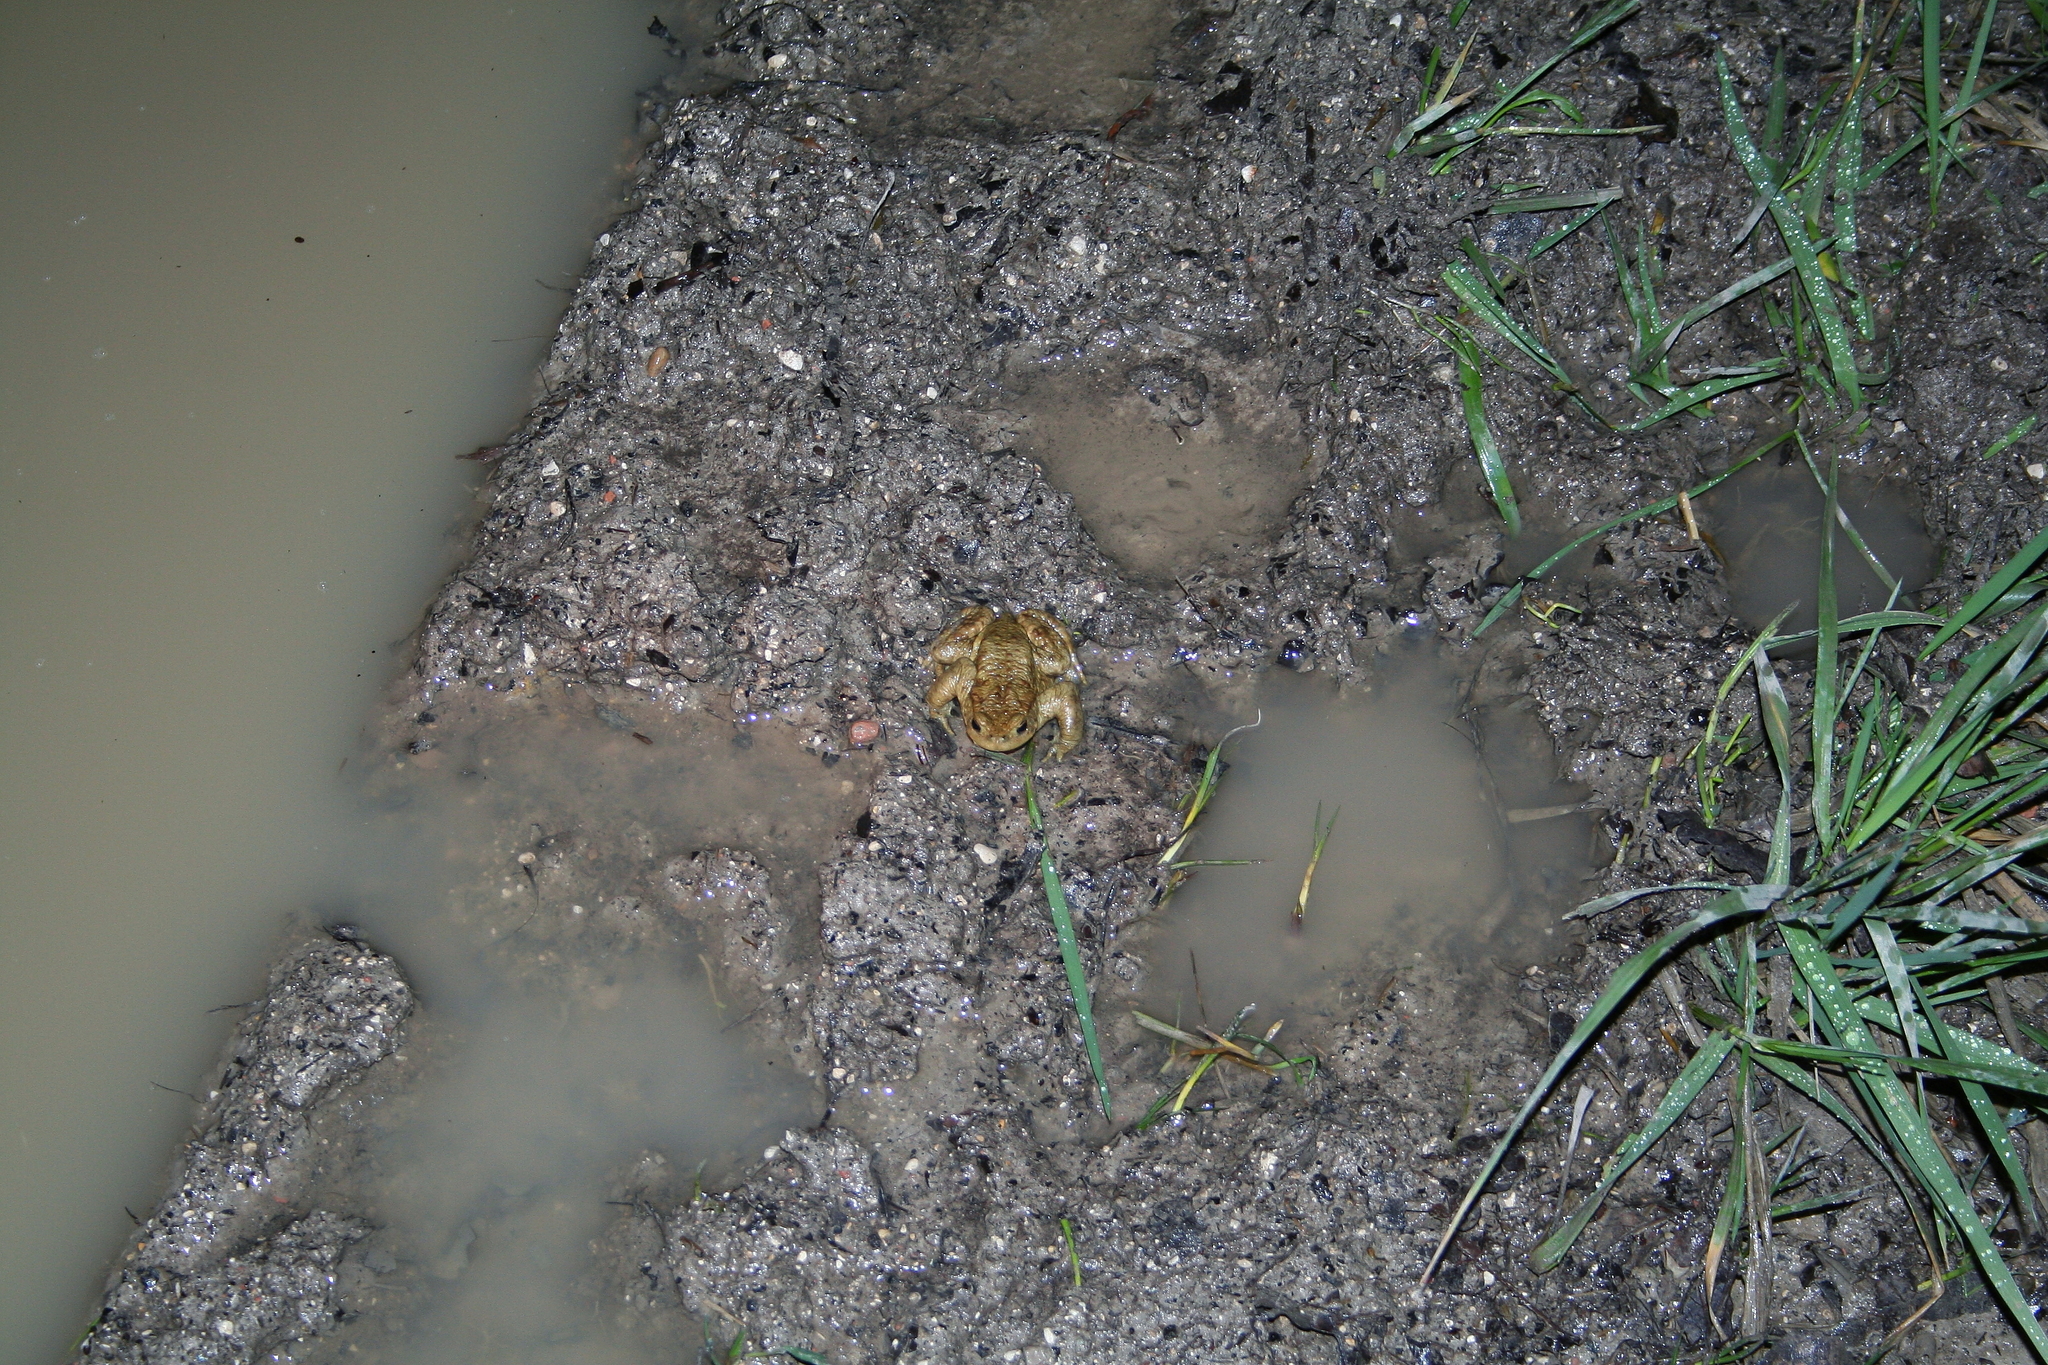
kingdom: Animalia
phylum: Chordata
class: Amphibia
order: Anura
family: Bufonidae
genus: Bufo
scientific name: Bufo bufo
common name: Common toad
